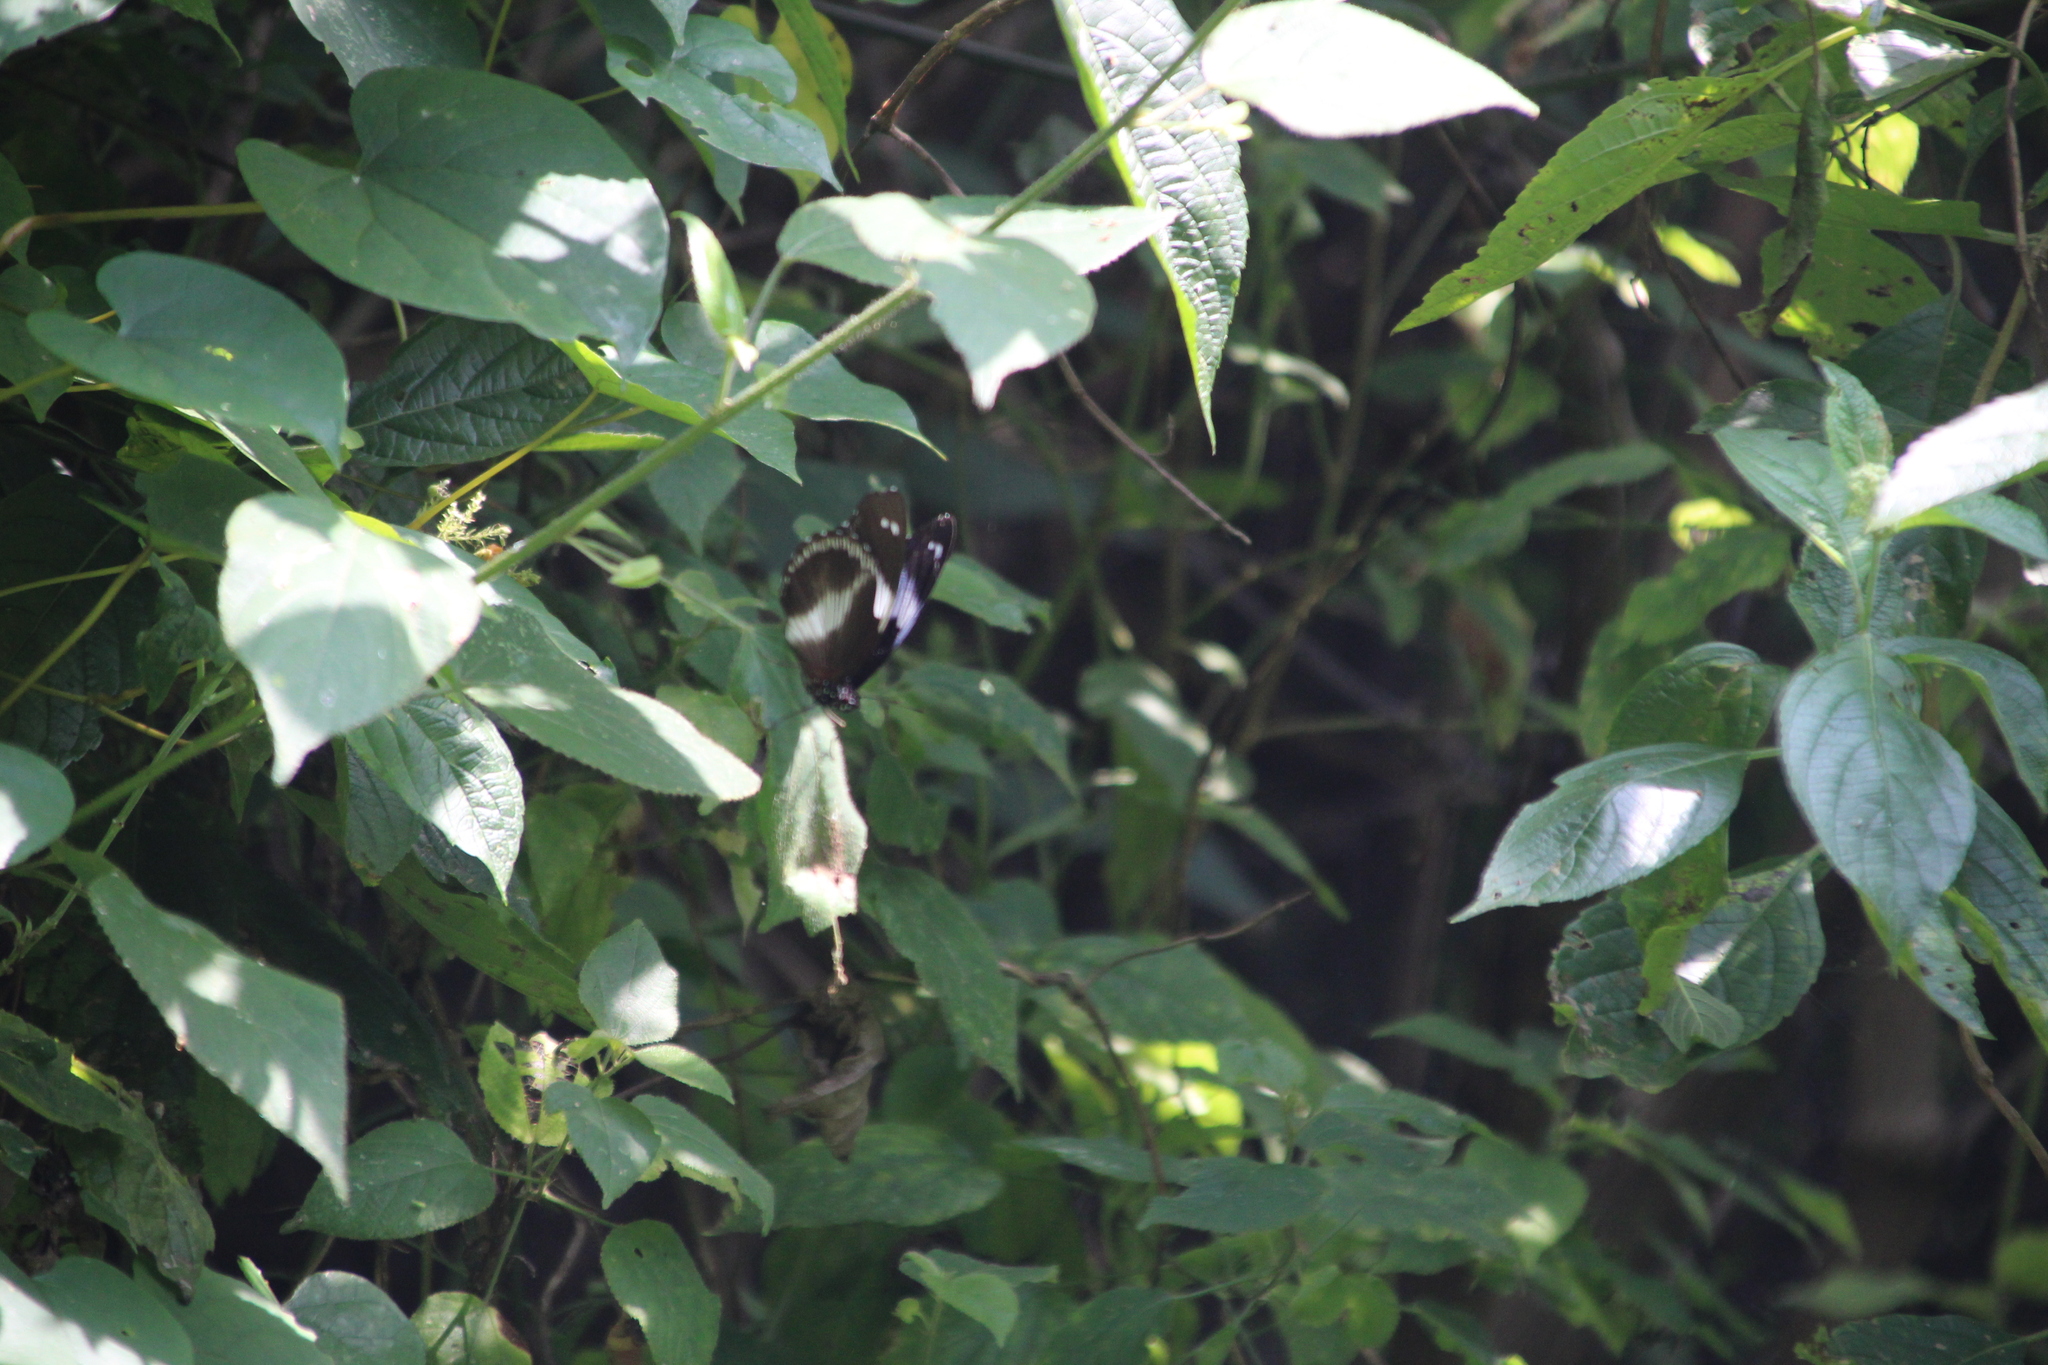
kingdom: Animalia
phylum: Arthropoda
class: Insecta
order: Lepidoptera
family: Nymphalidae
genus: Hypolimnas
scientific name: Hypolimnas salmacis
